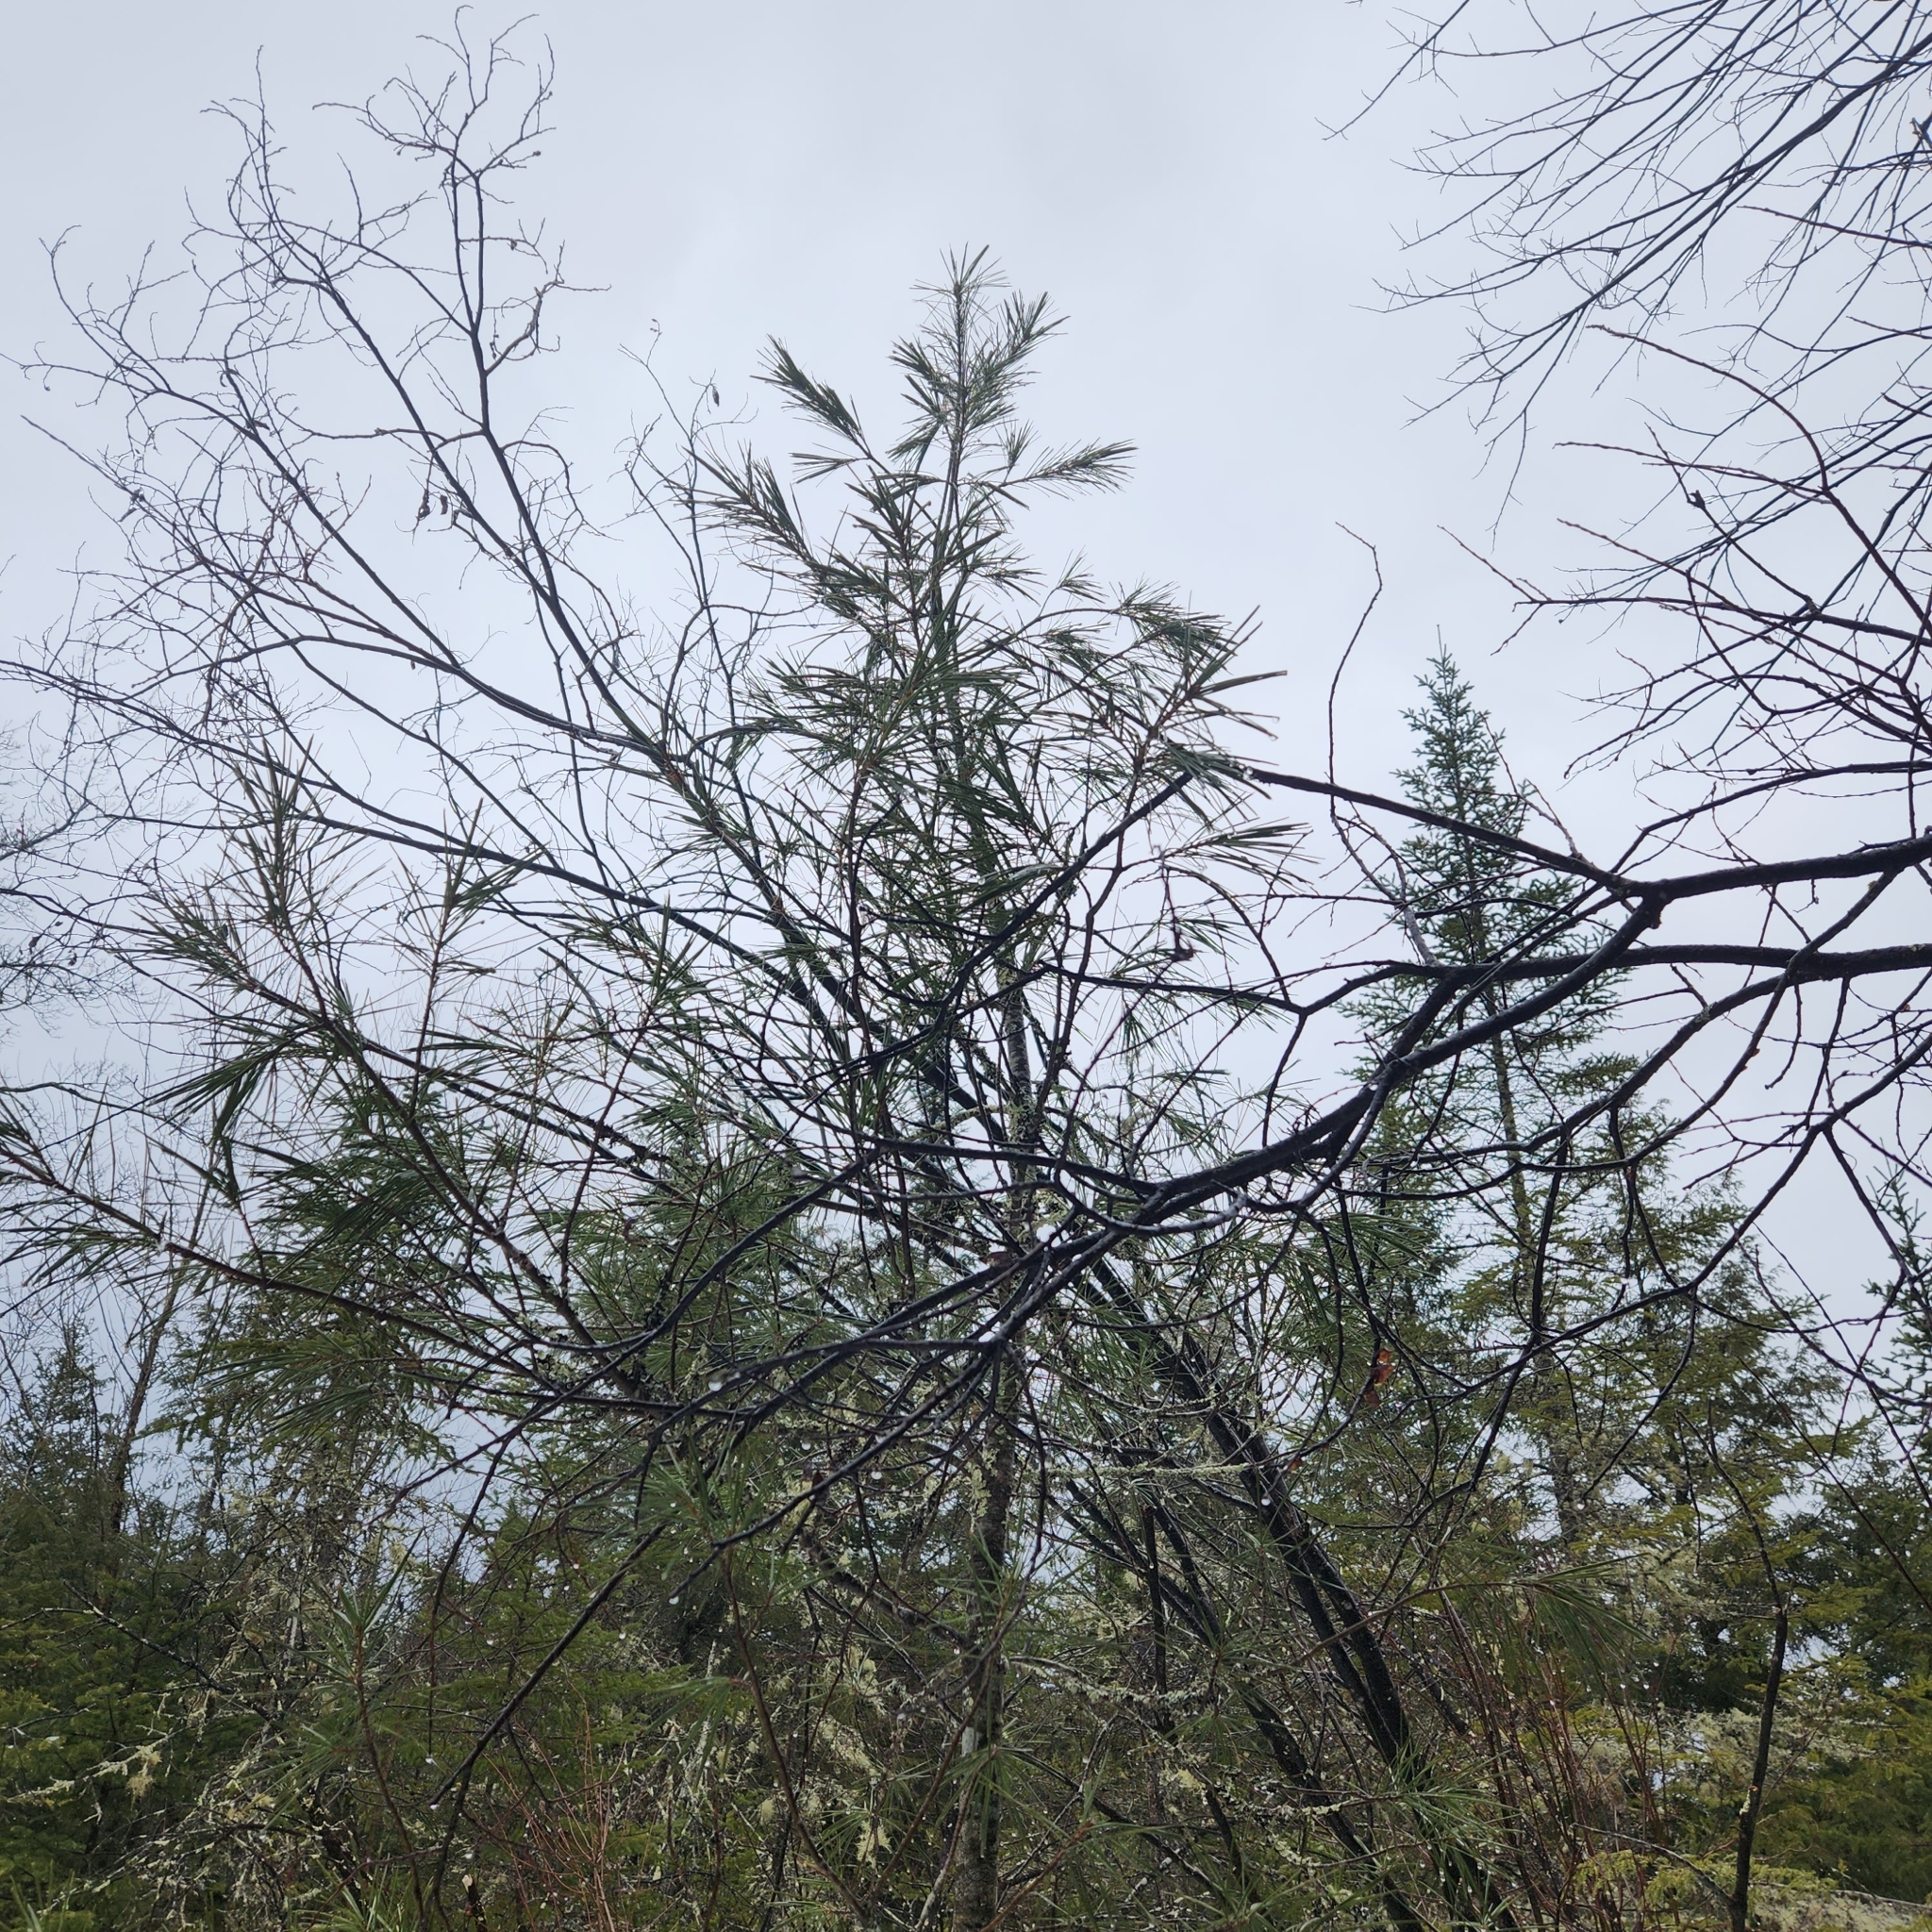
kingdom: Plantae
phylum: Tracheophyta
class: Pinopsida
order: Pinales
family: Pinaceae
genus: Pinus
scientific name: Pinus strobus
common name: Weymouth pine
